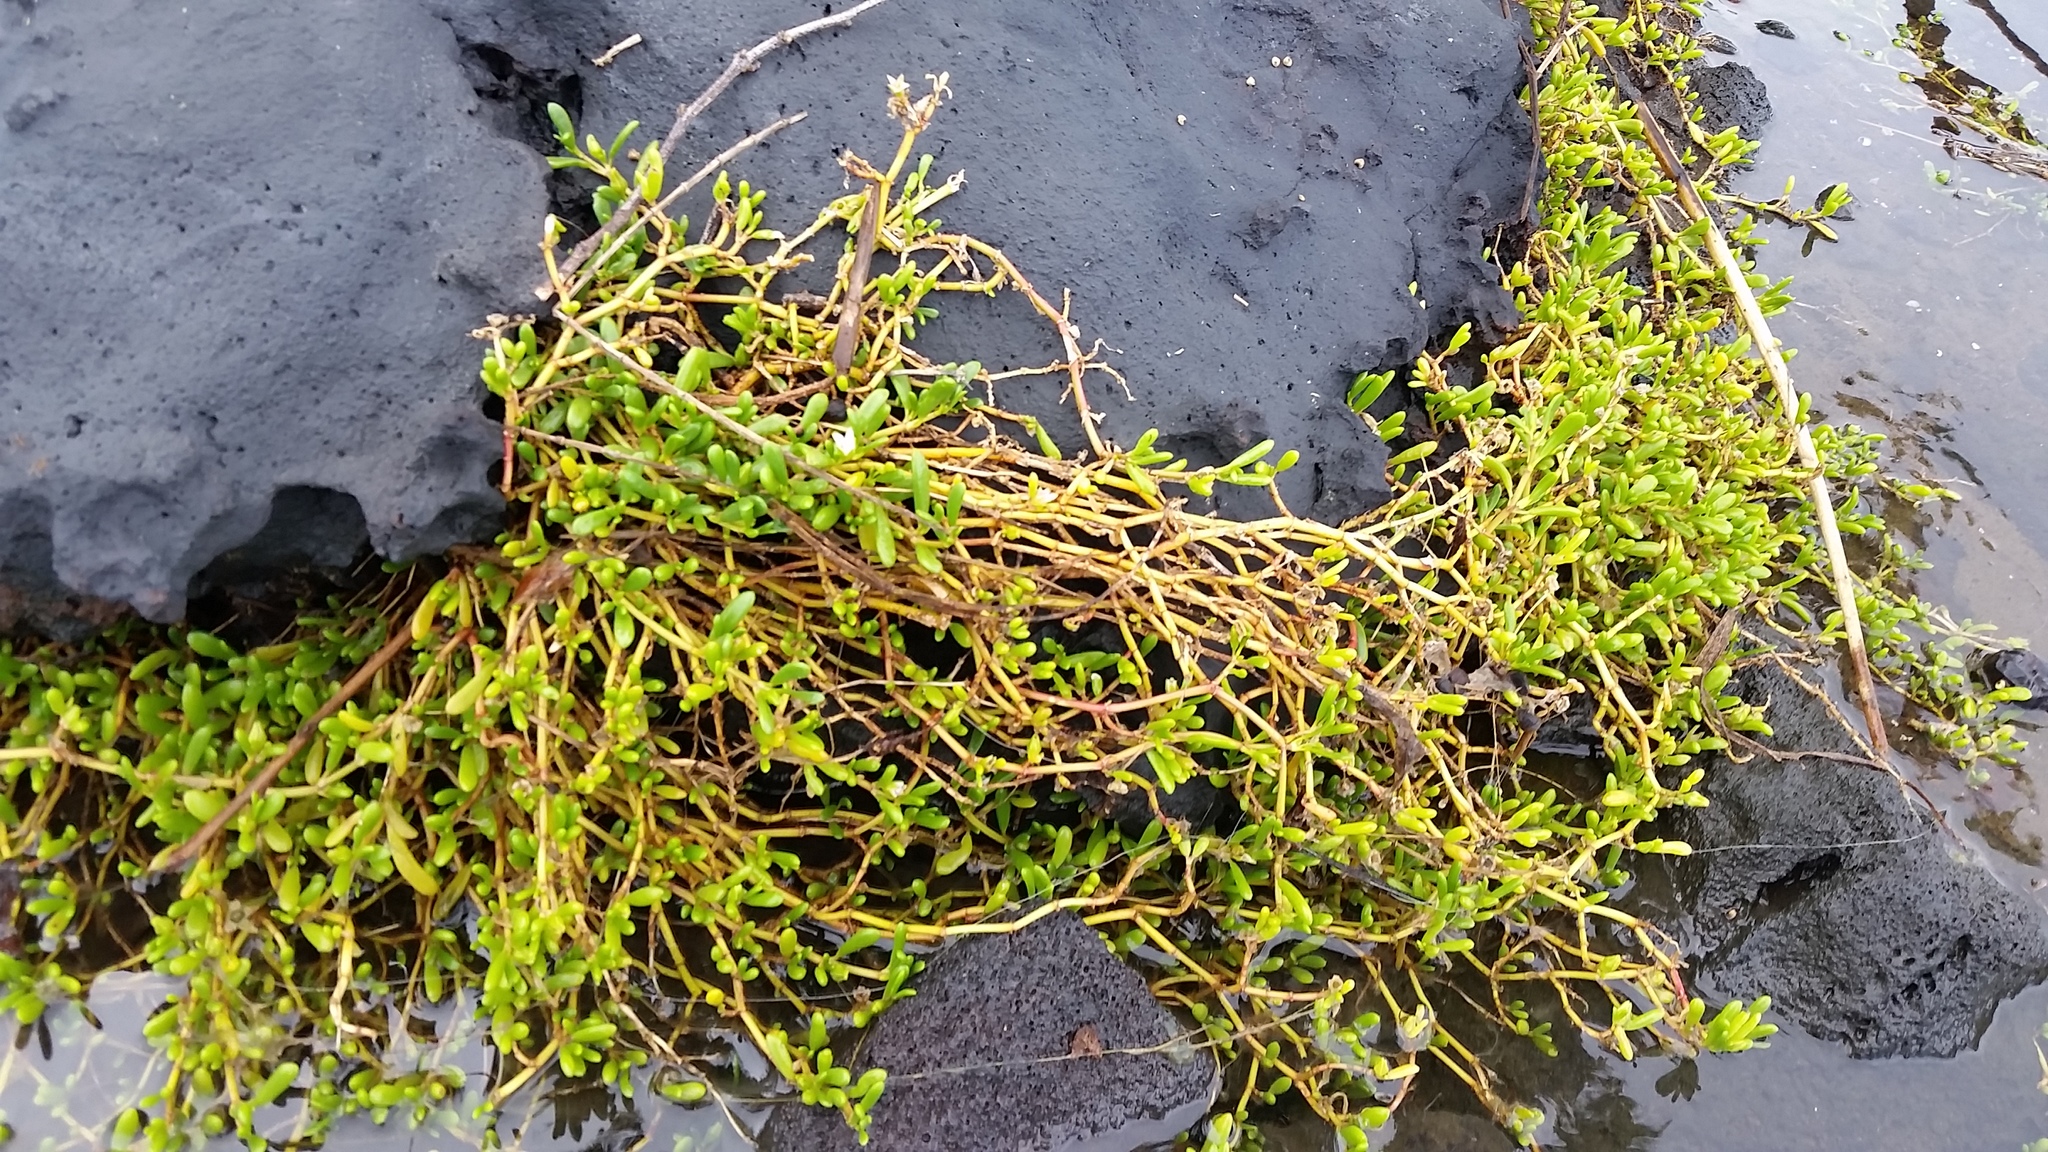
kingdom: Plantae
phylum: Tracheophyta
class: Magnoliopsida
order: Caryophyllales
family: Aizoaceae
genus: Sesuvium
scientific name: Sesuvium portulacastrum
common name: Sea-purslane
